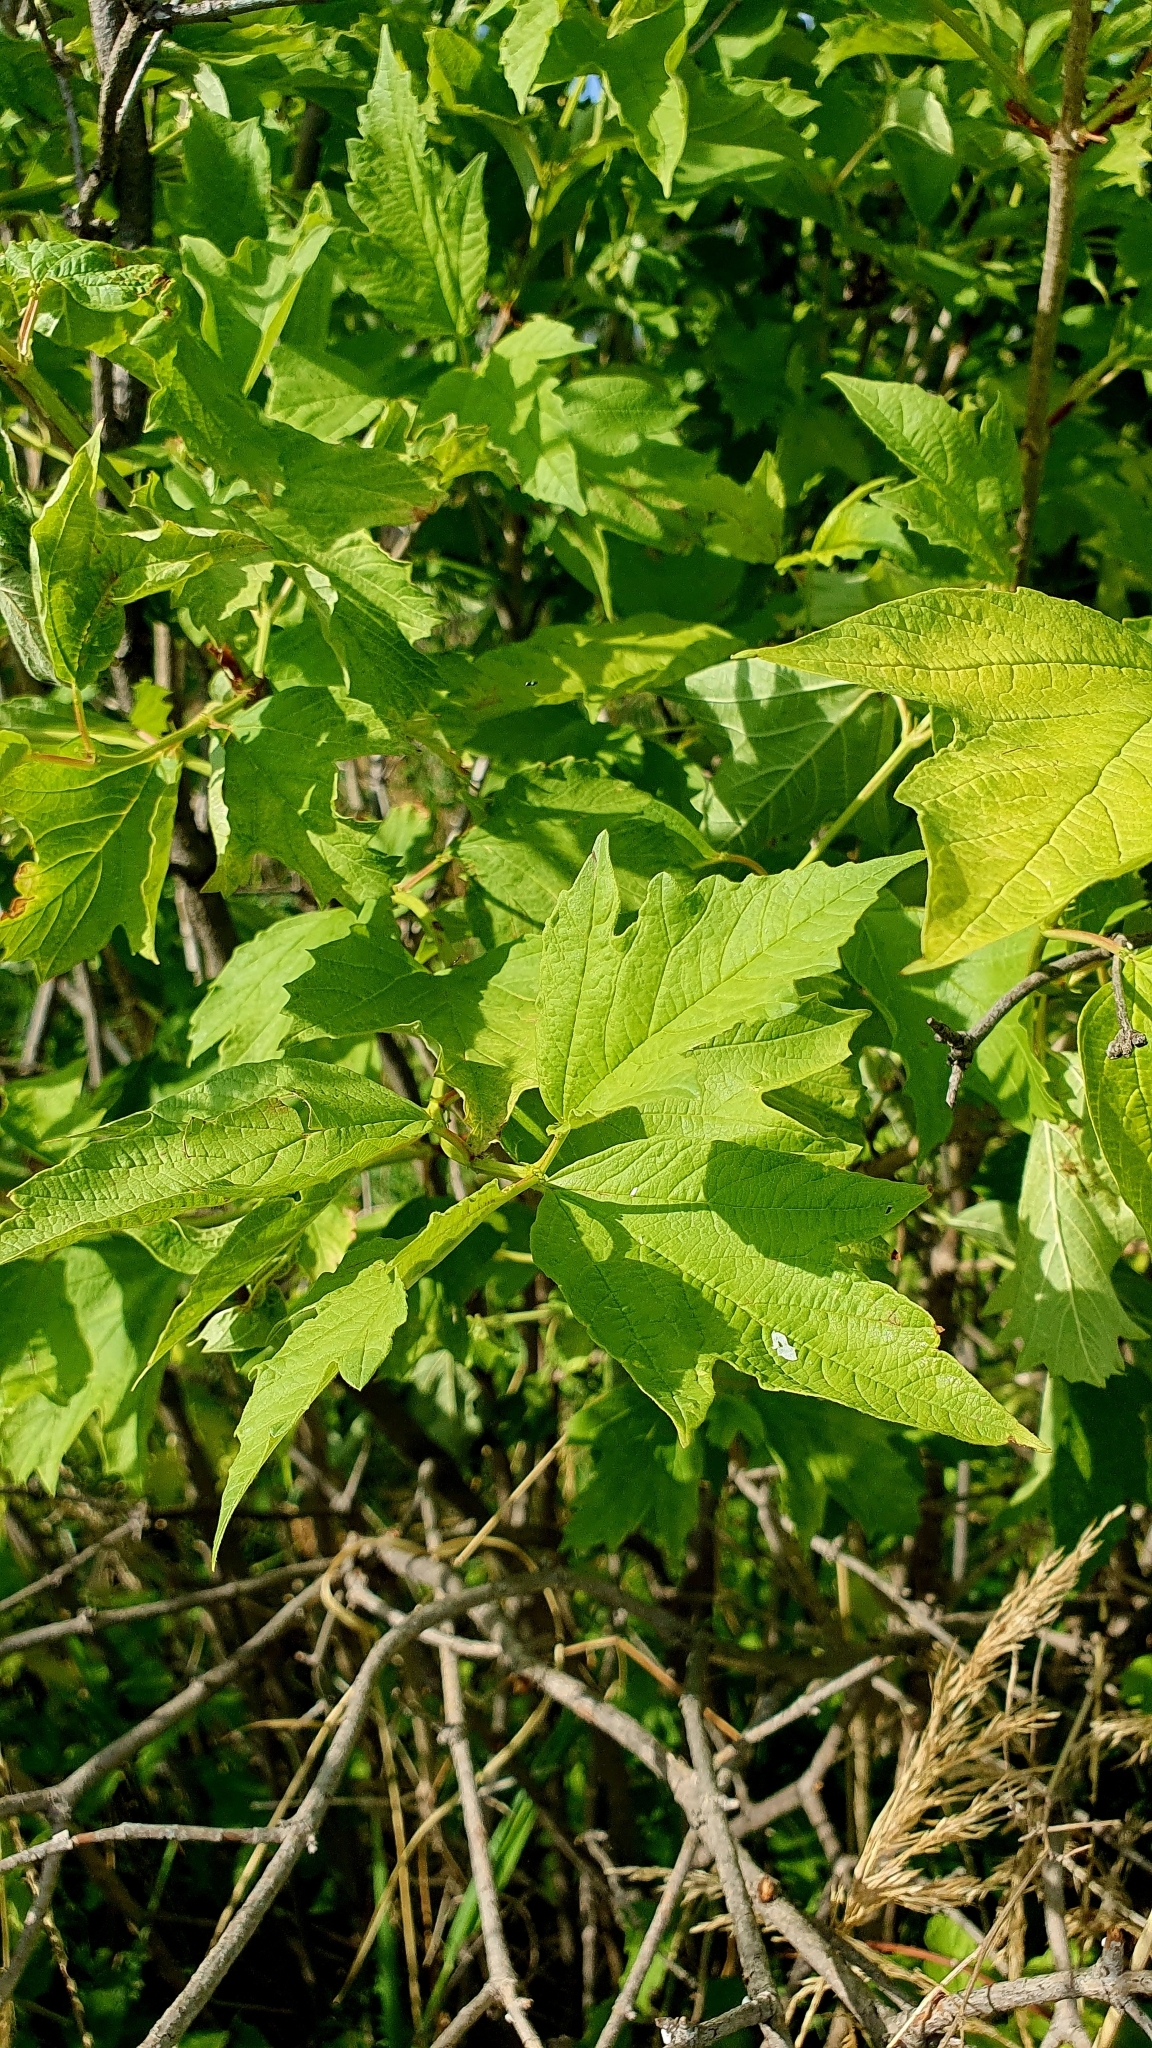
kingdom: Plantae
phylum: Tracheophyta
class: Magnoliopsida
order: Dipsacales
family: Viburnaceae
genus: Viburnum
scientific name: Viburnum opulus
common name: Guelder-rose
